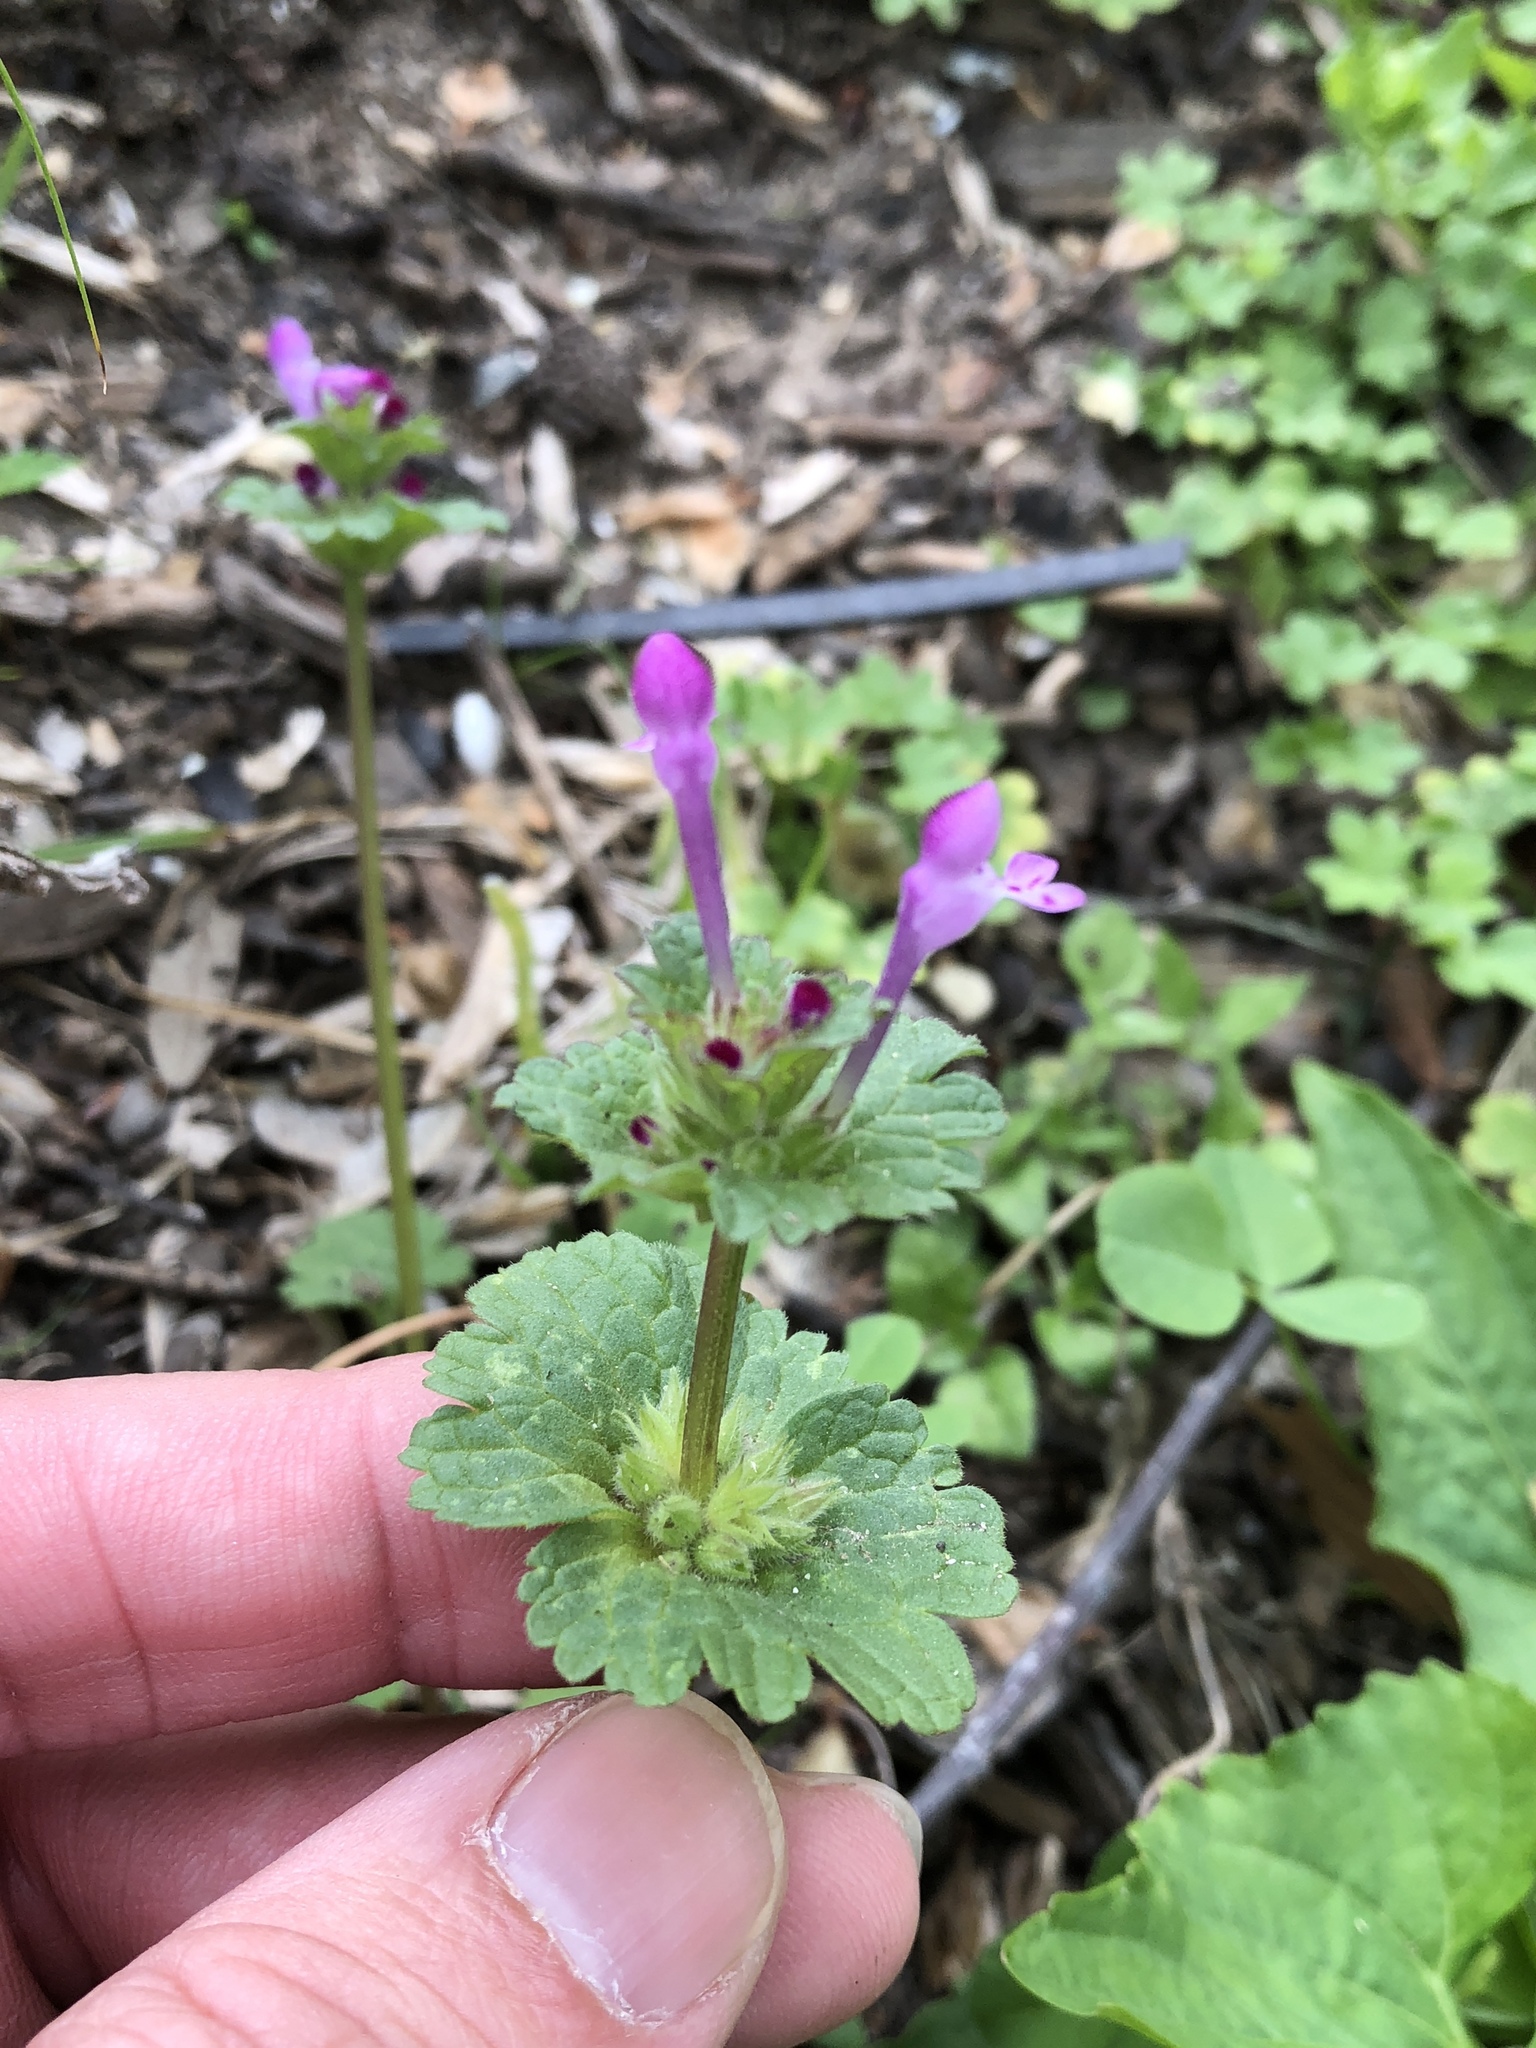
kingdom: Plantae
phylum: Tracheophyta
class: Magnoliopsida
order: Lamiales
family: Lamiaceae
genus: Lamium
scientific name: Lamium amplexicaule
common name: Henbit dead-nettle
